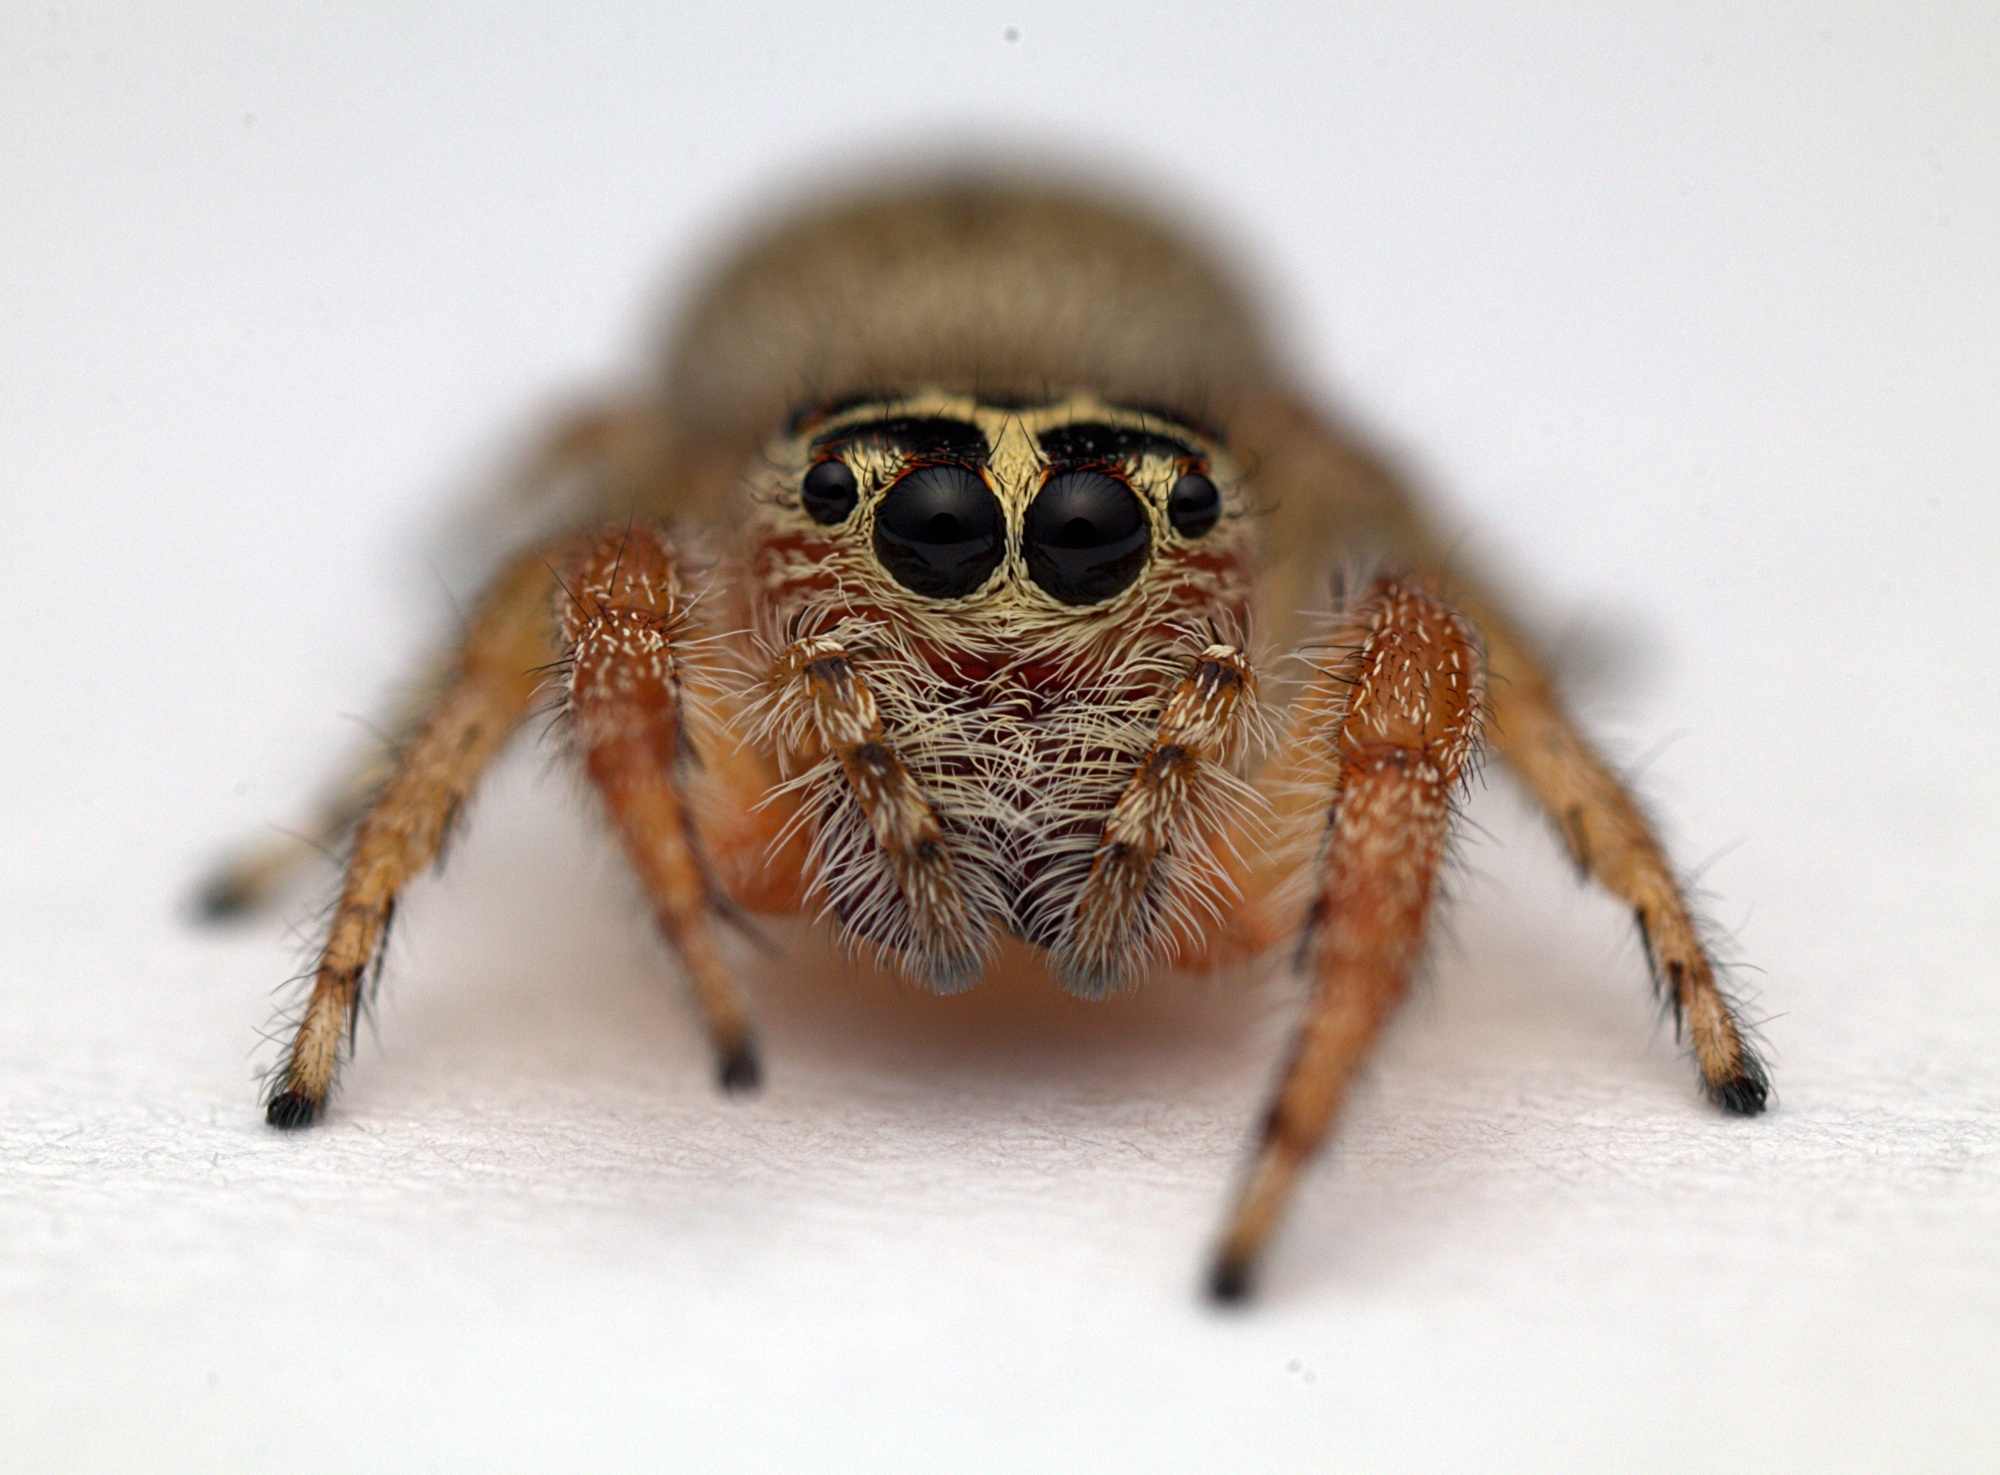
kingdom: Animalia
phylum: Arthropoda
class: Arachnida
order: Araneae
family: Salticidae
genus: Opisthoncus
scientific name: Opisthoncus polyphemus
